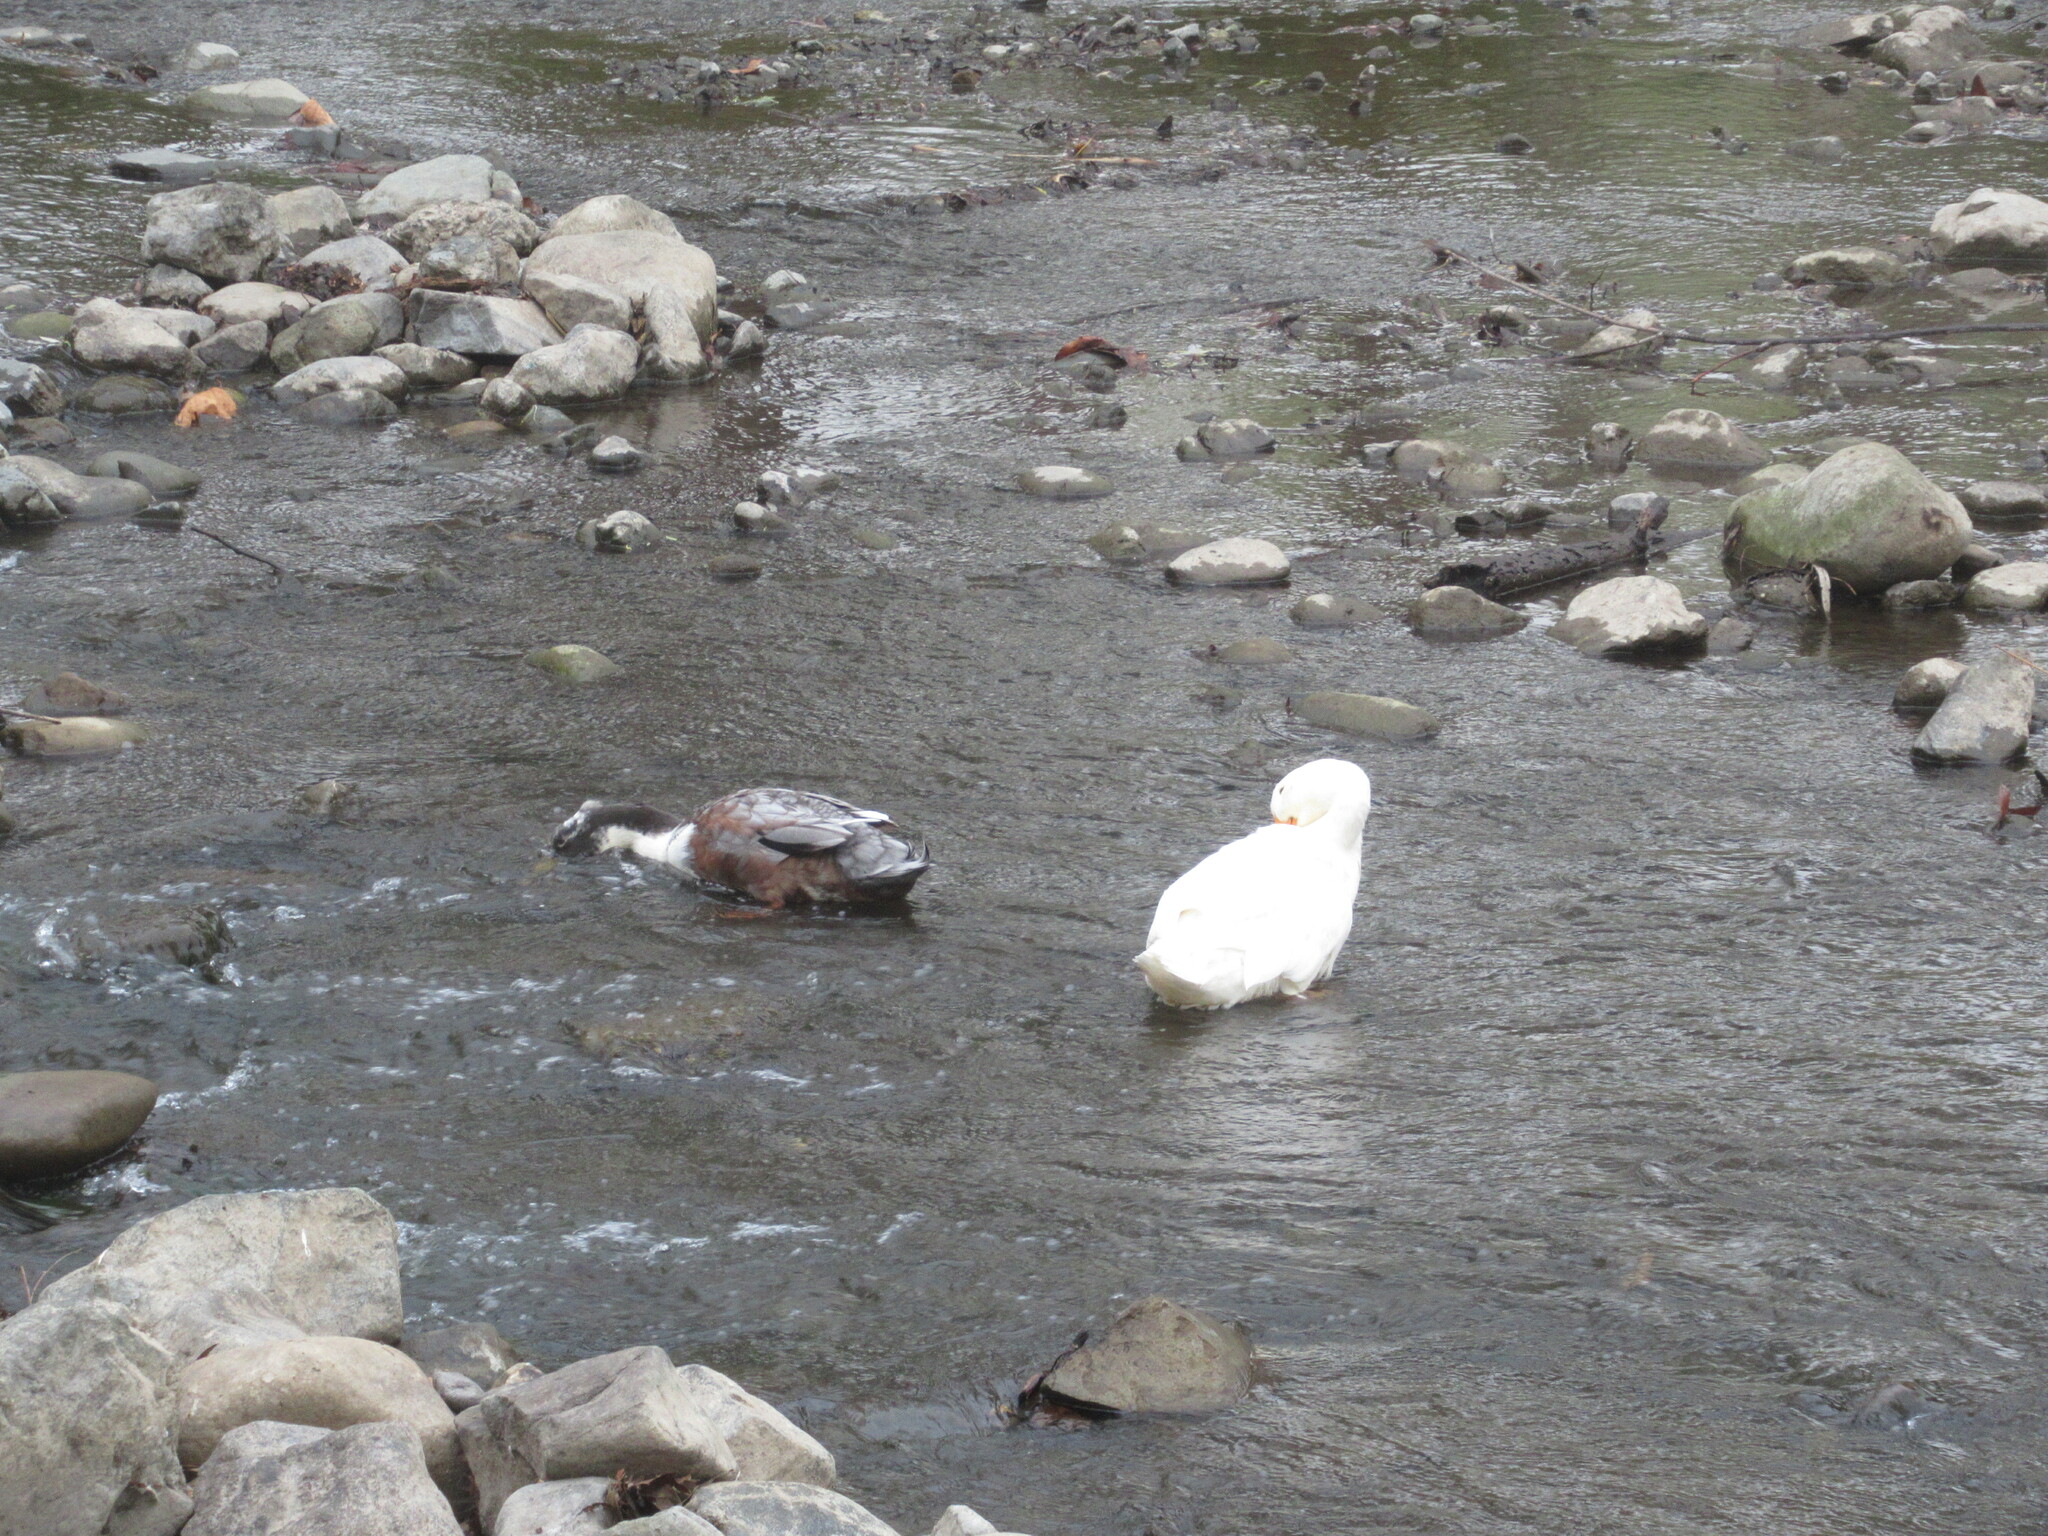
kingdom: Animalia
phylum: Chordata
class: Aves
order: Anseriformes
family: Anatidae
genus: Anas
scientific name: Anas platyrhynchos
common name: Mallard
